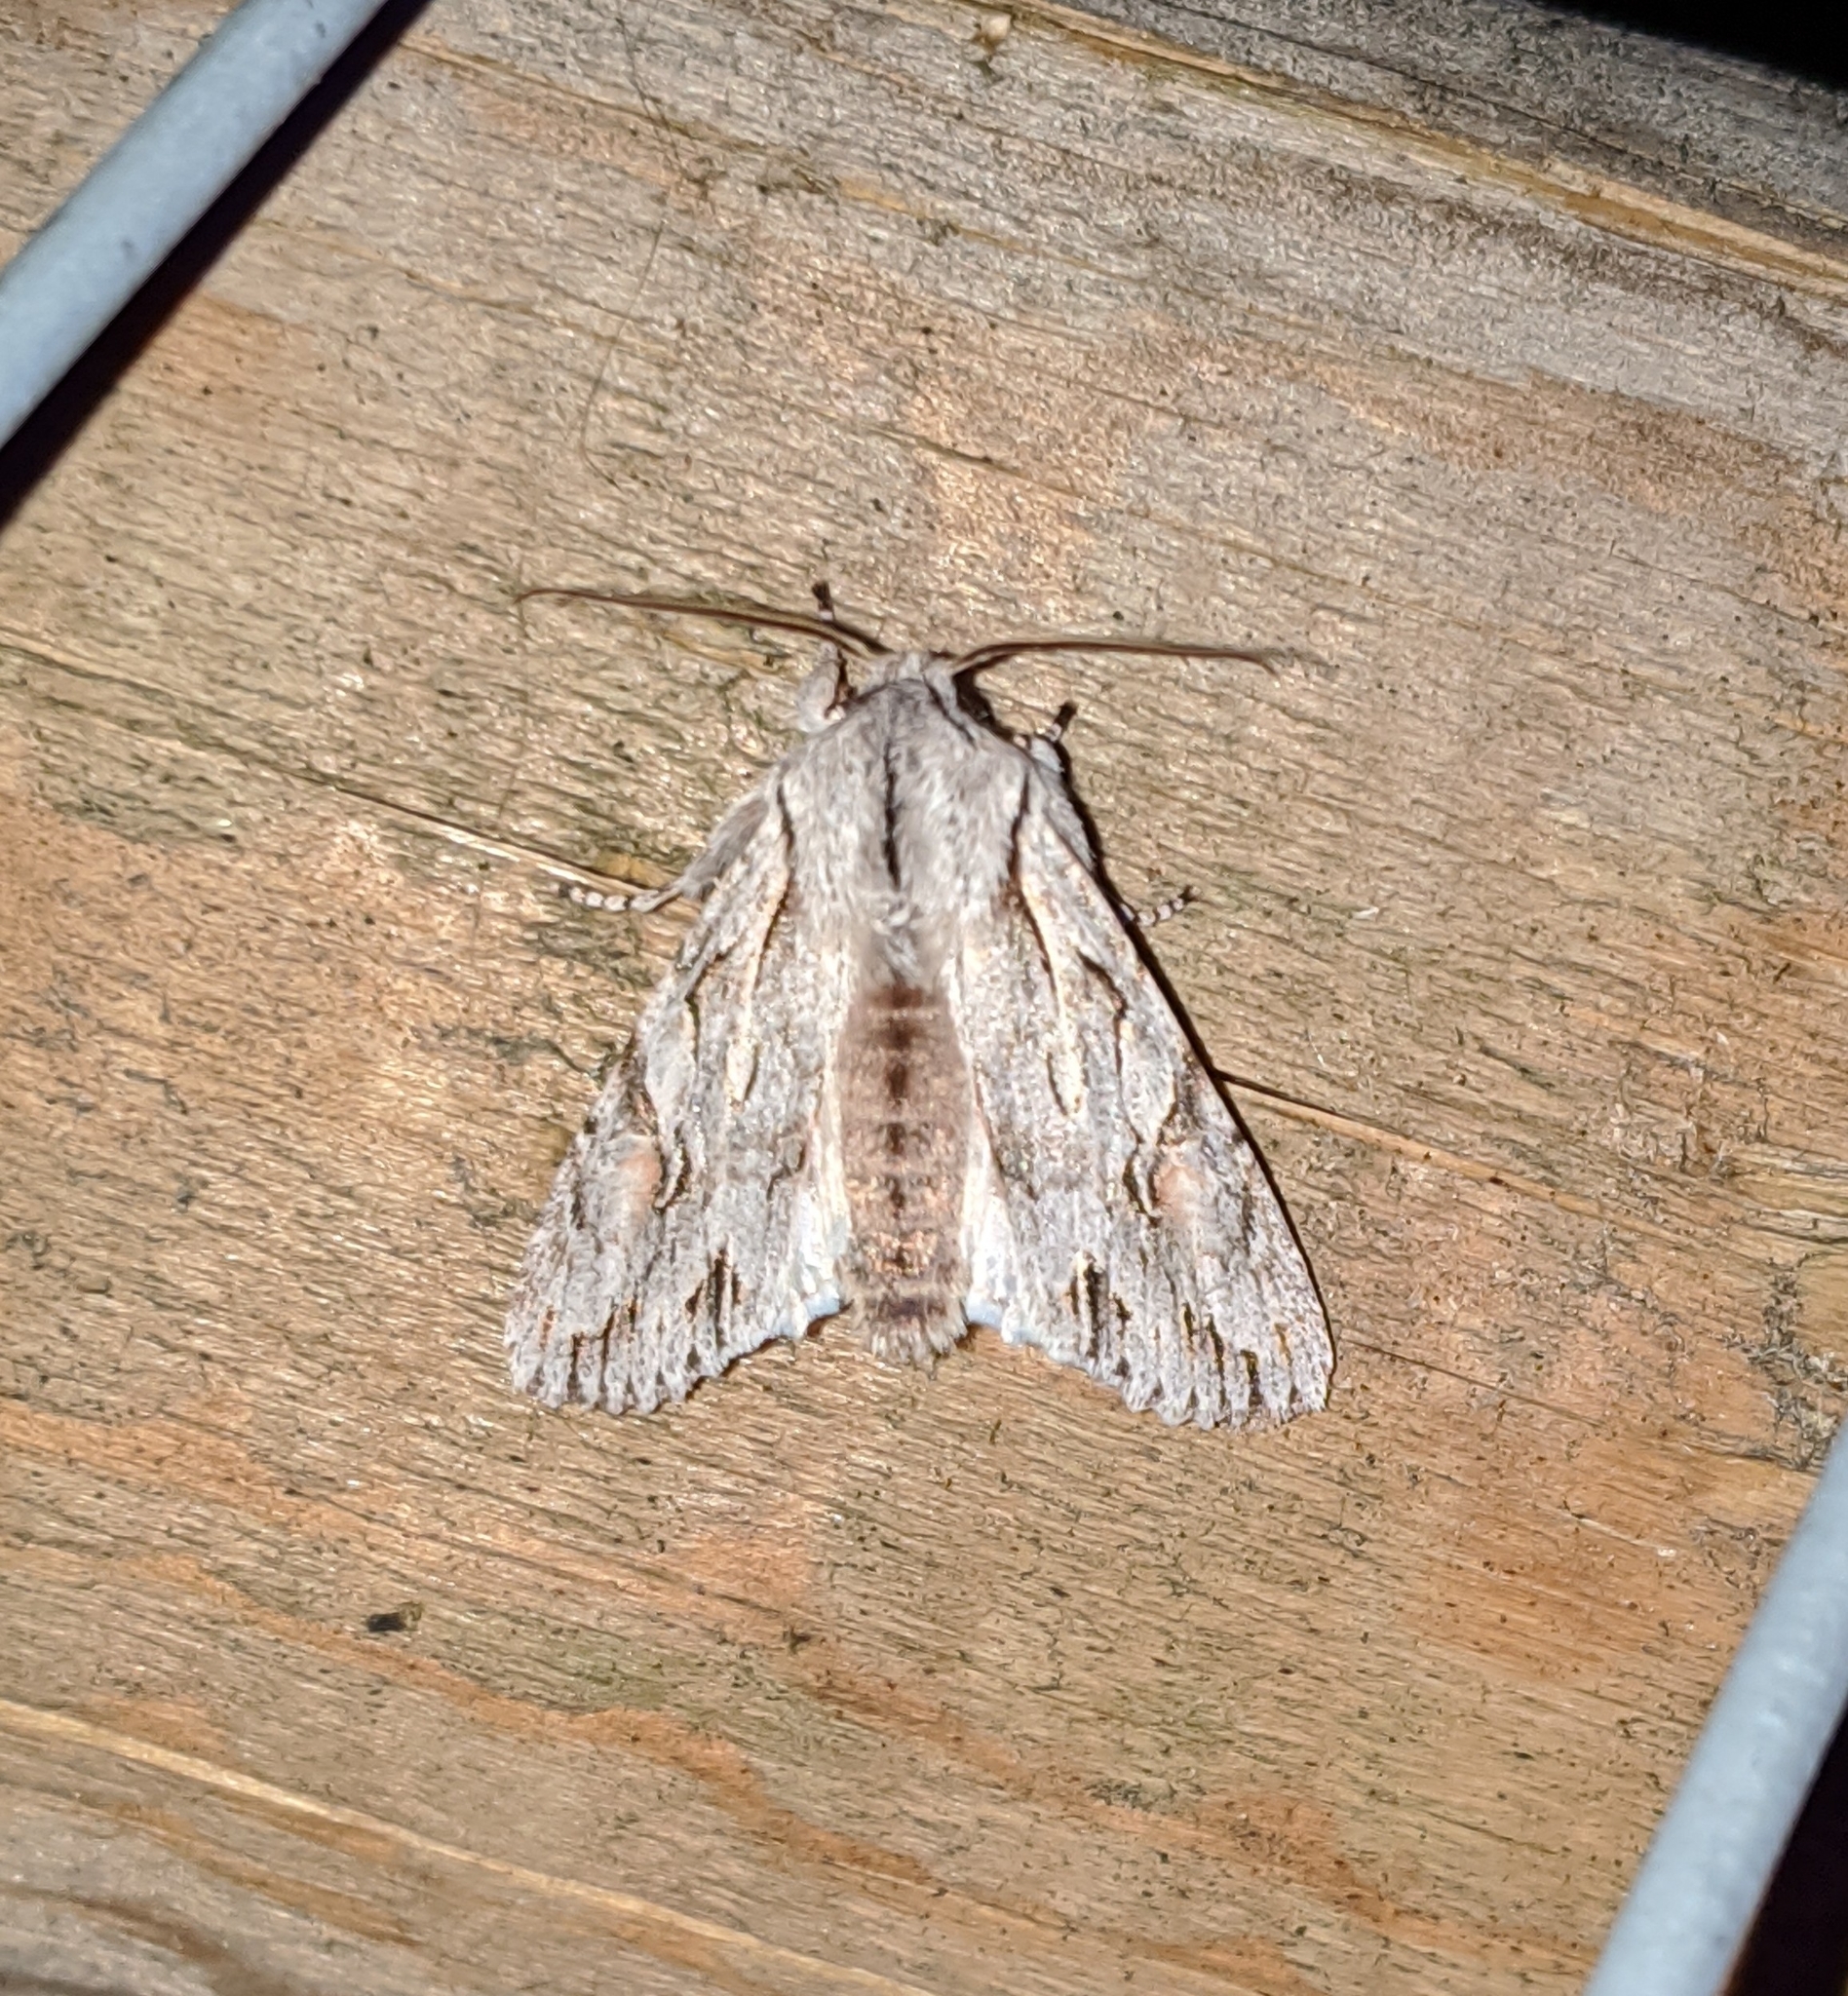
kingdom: Animalia
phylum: Arthropoda
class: Insecta
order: Lepidoptera
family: Noctuidae
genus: Egira
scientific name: Egira crucialis
